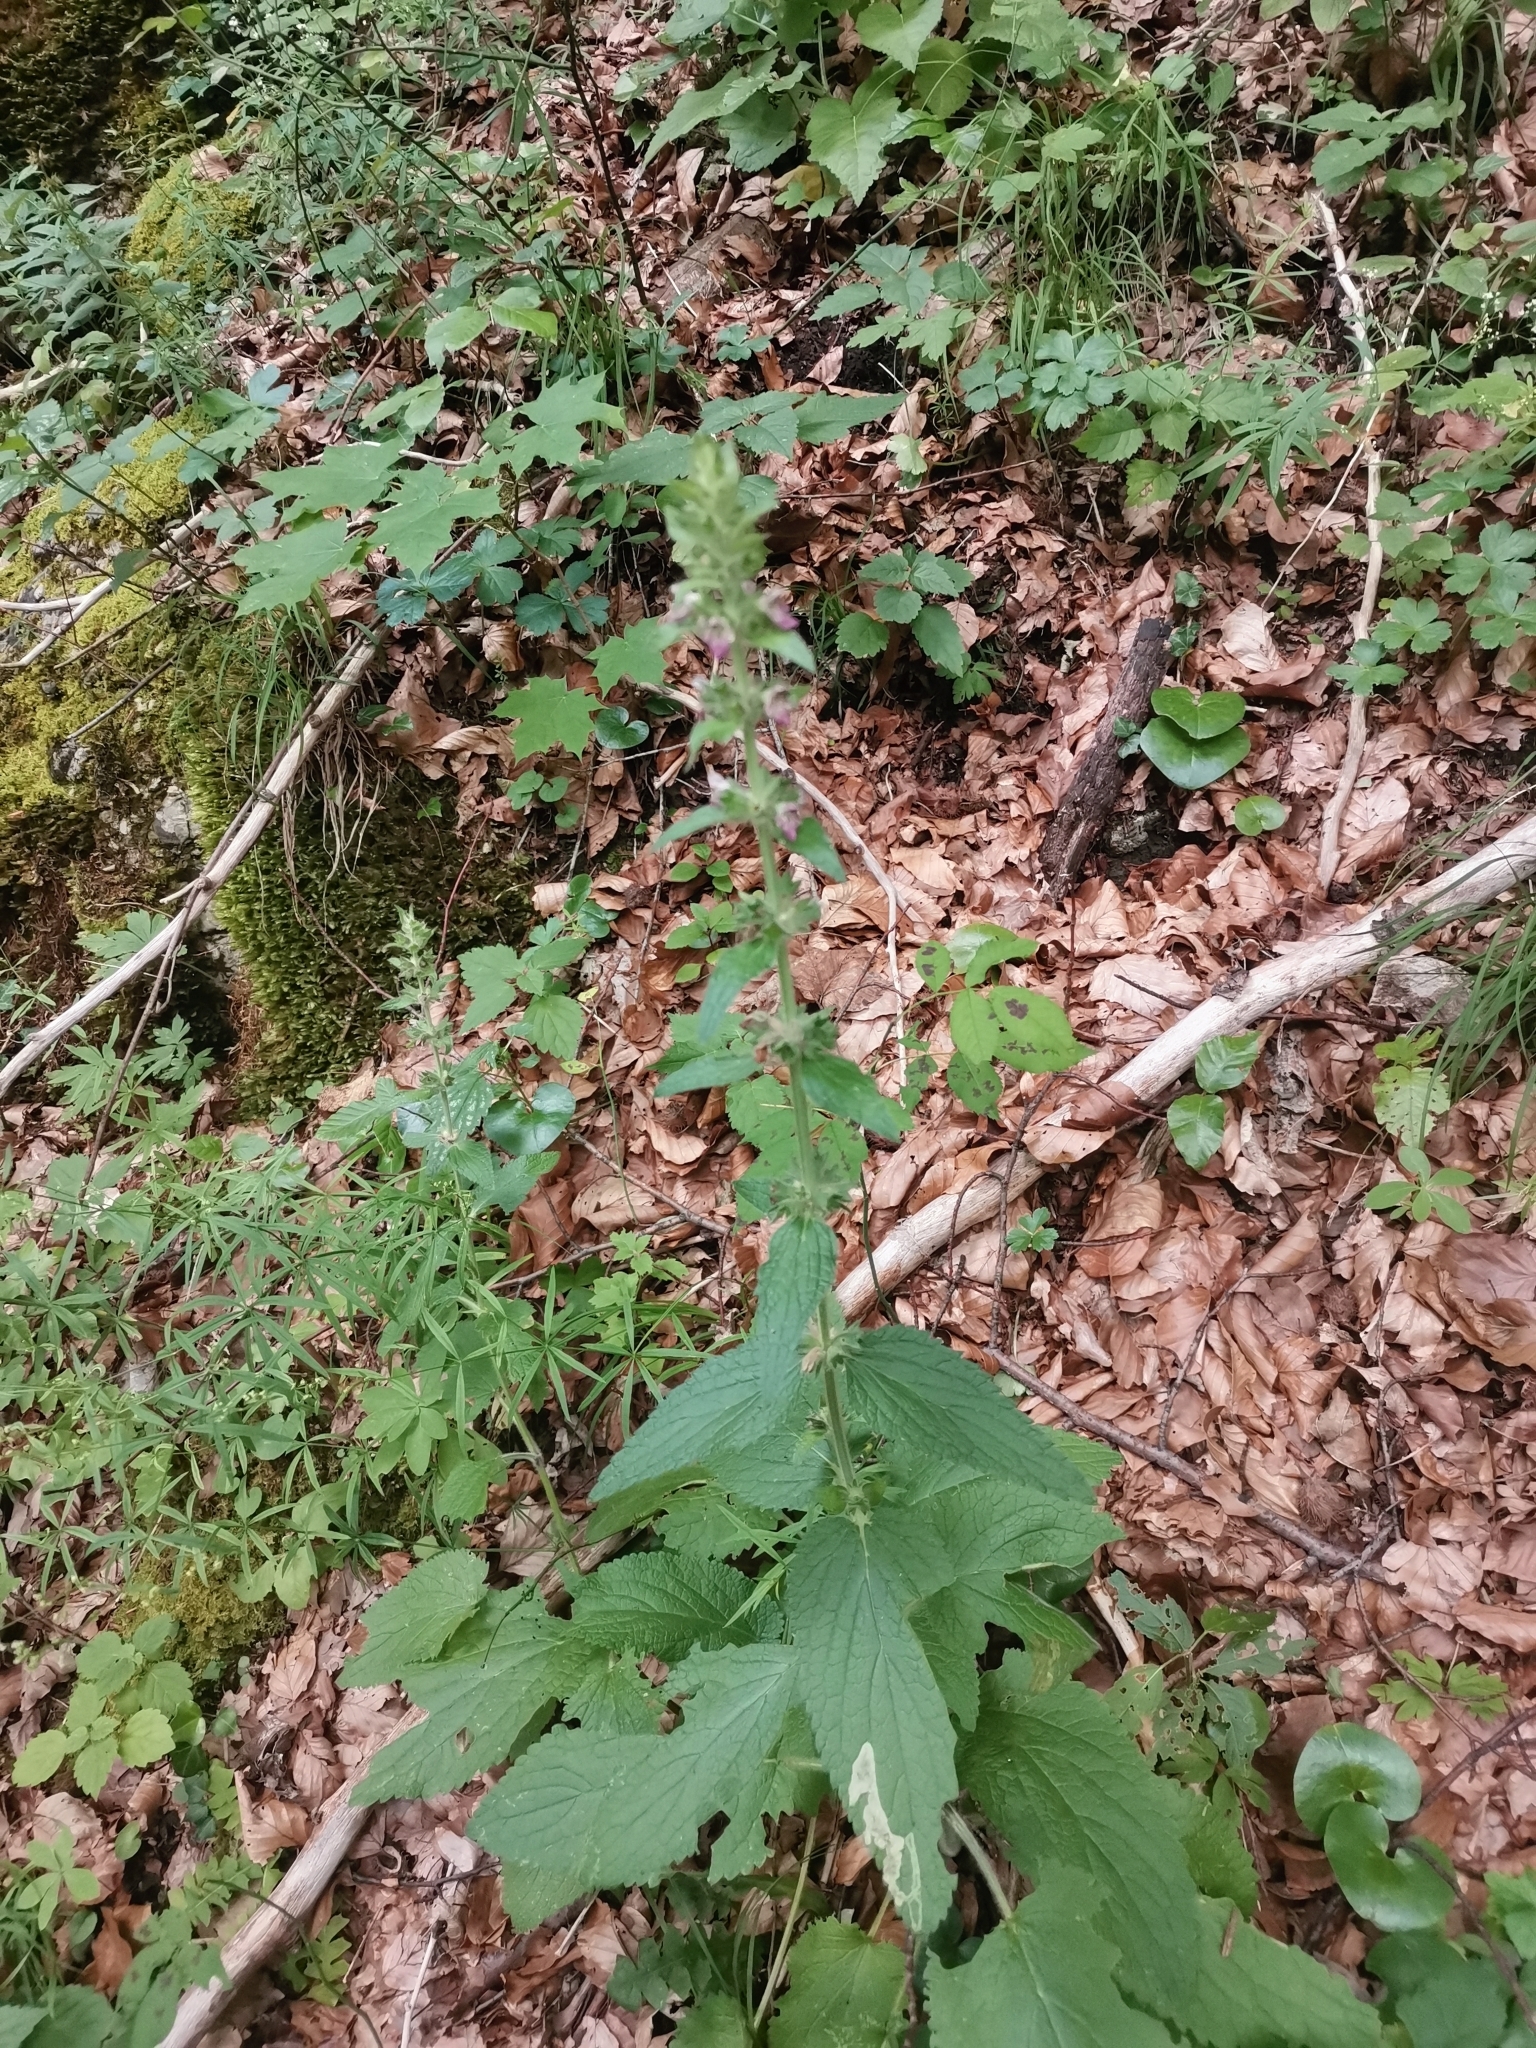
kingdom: Plantae
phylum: Tracheophyta
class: Magnoliopsida
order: Lamiales
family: Lamiaceae
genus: Stachys
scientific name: Stachys alpina
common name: Limestone woundwort
